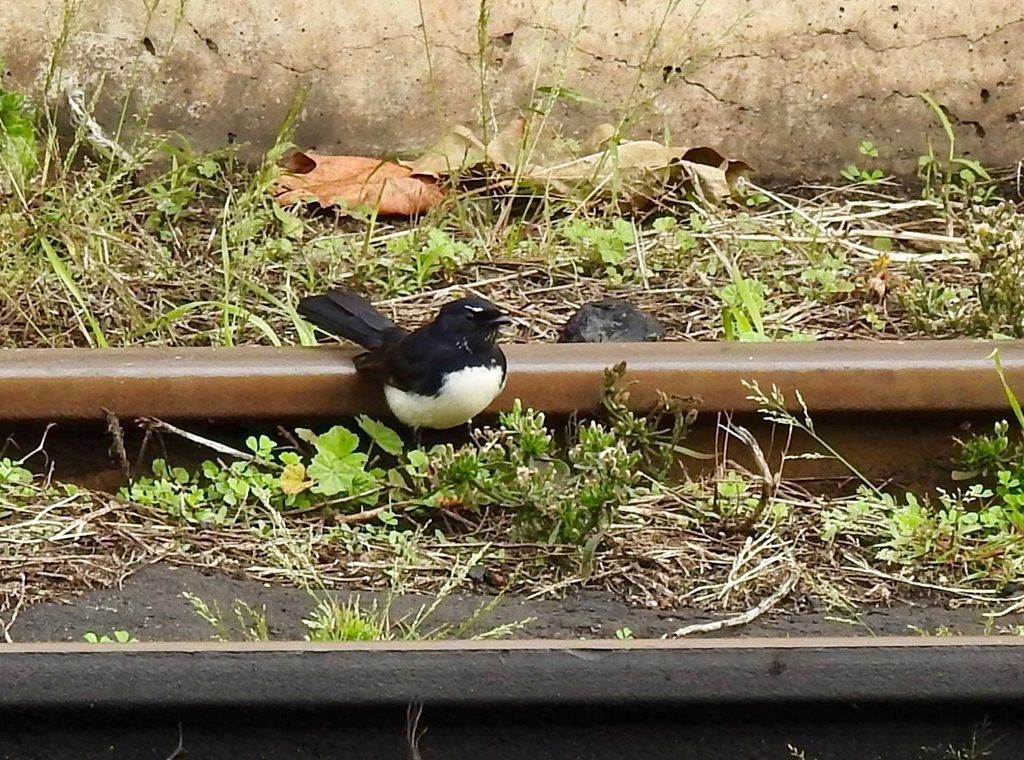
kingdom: Animalia
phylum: Chordata
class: Aves
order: Passeriformes
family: Rhipiduridae
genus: Rhipidura
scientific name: Rhipidura leucophrys
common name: Willie wagtail
